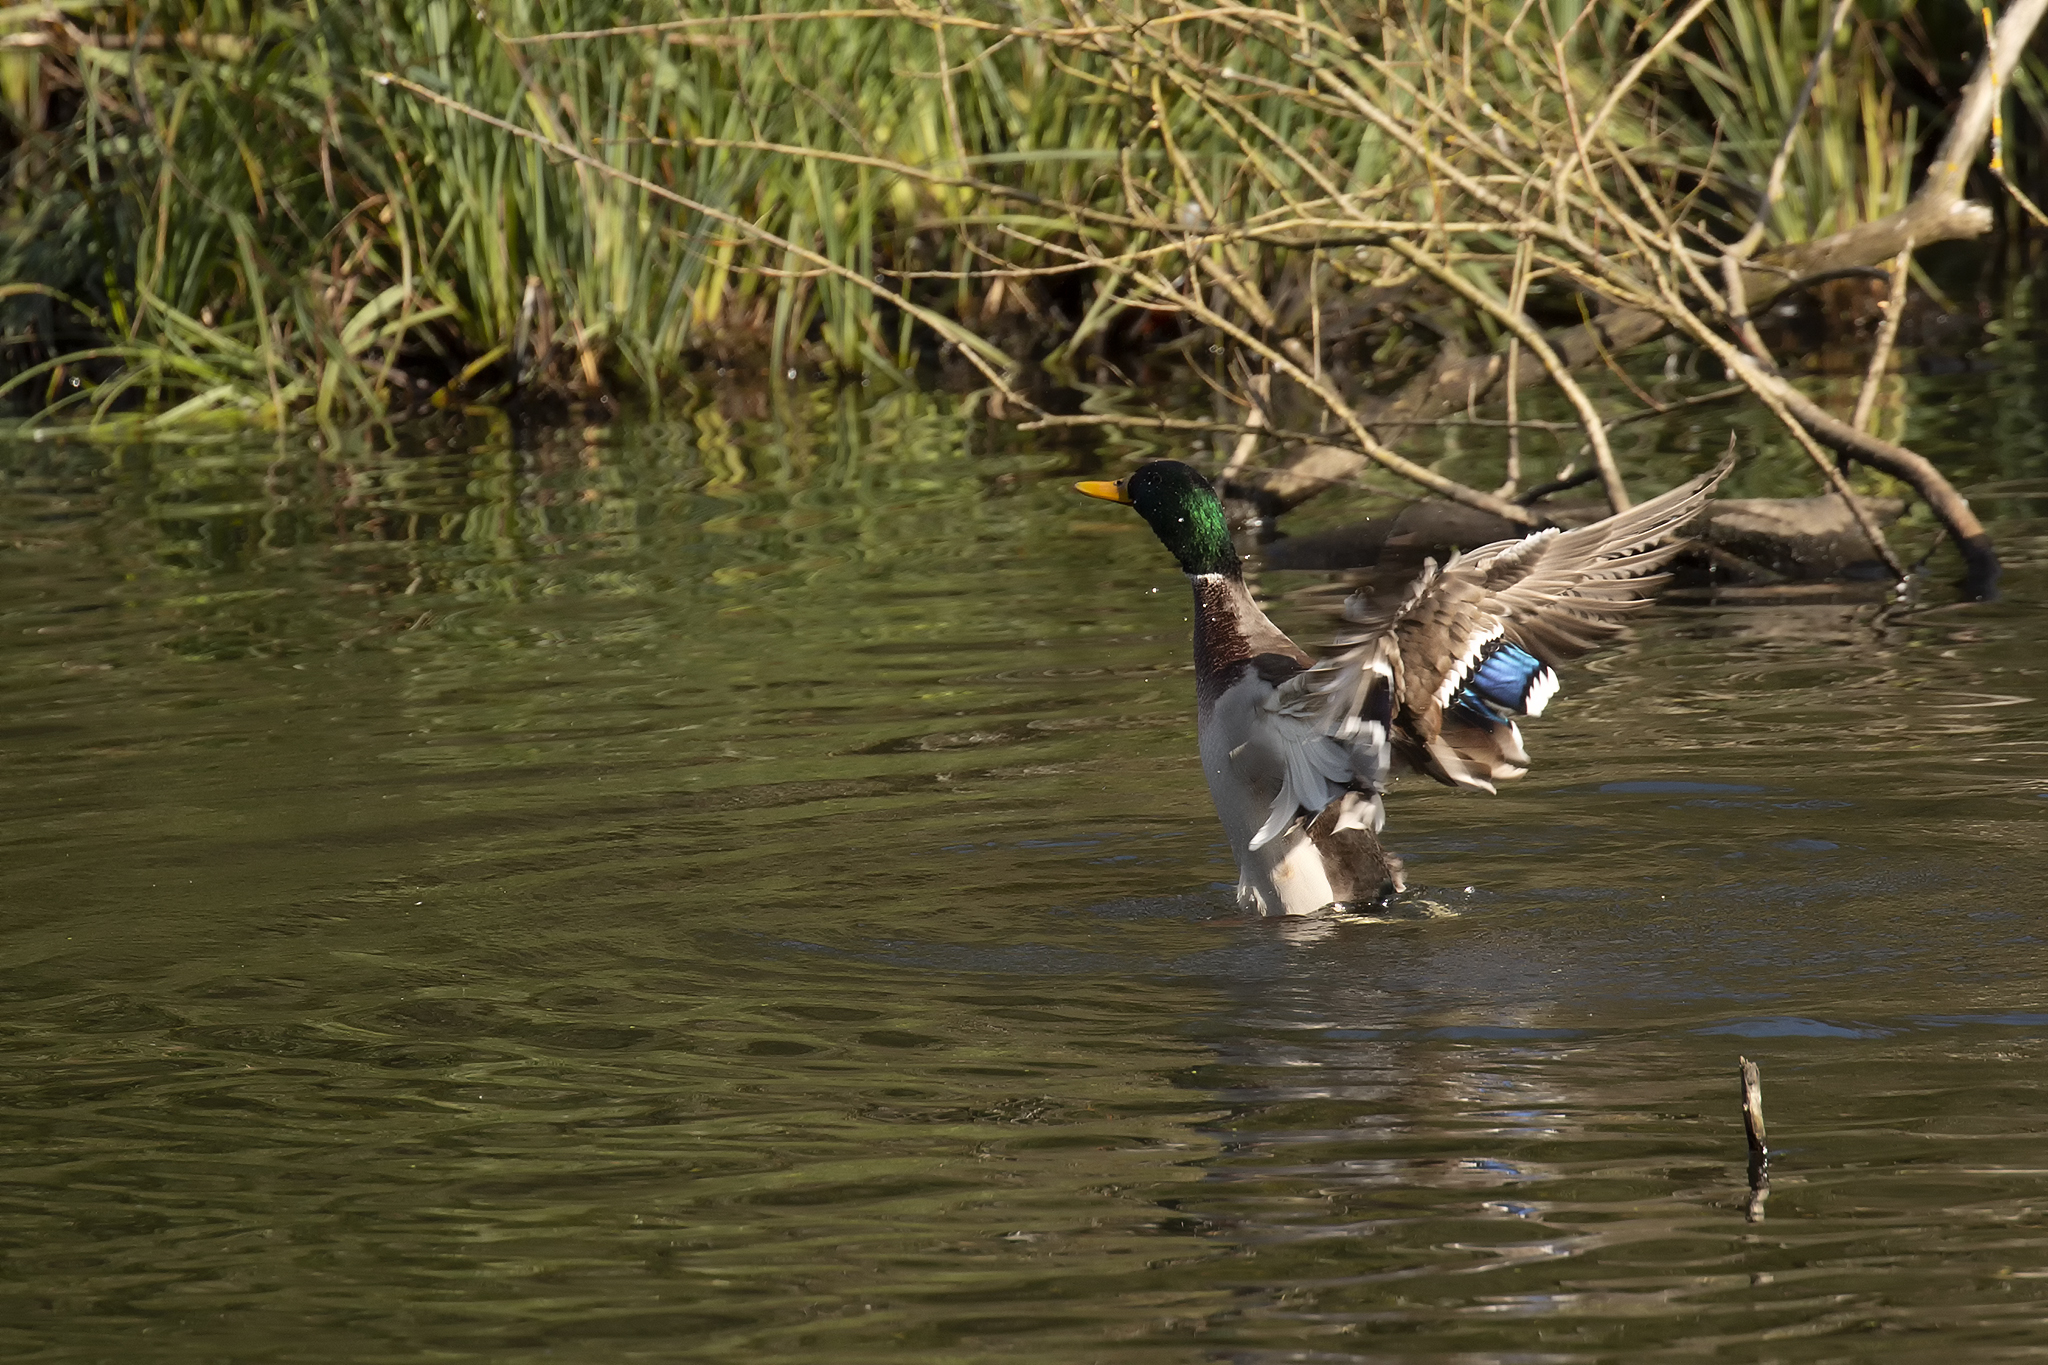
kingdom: Animalia
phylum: Chordata
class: Aves
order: Anseriformes
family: Anatidae
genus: Anas
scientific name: Anas platyrhynchos
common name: Mallard
